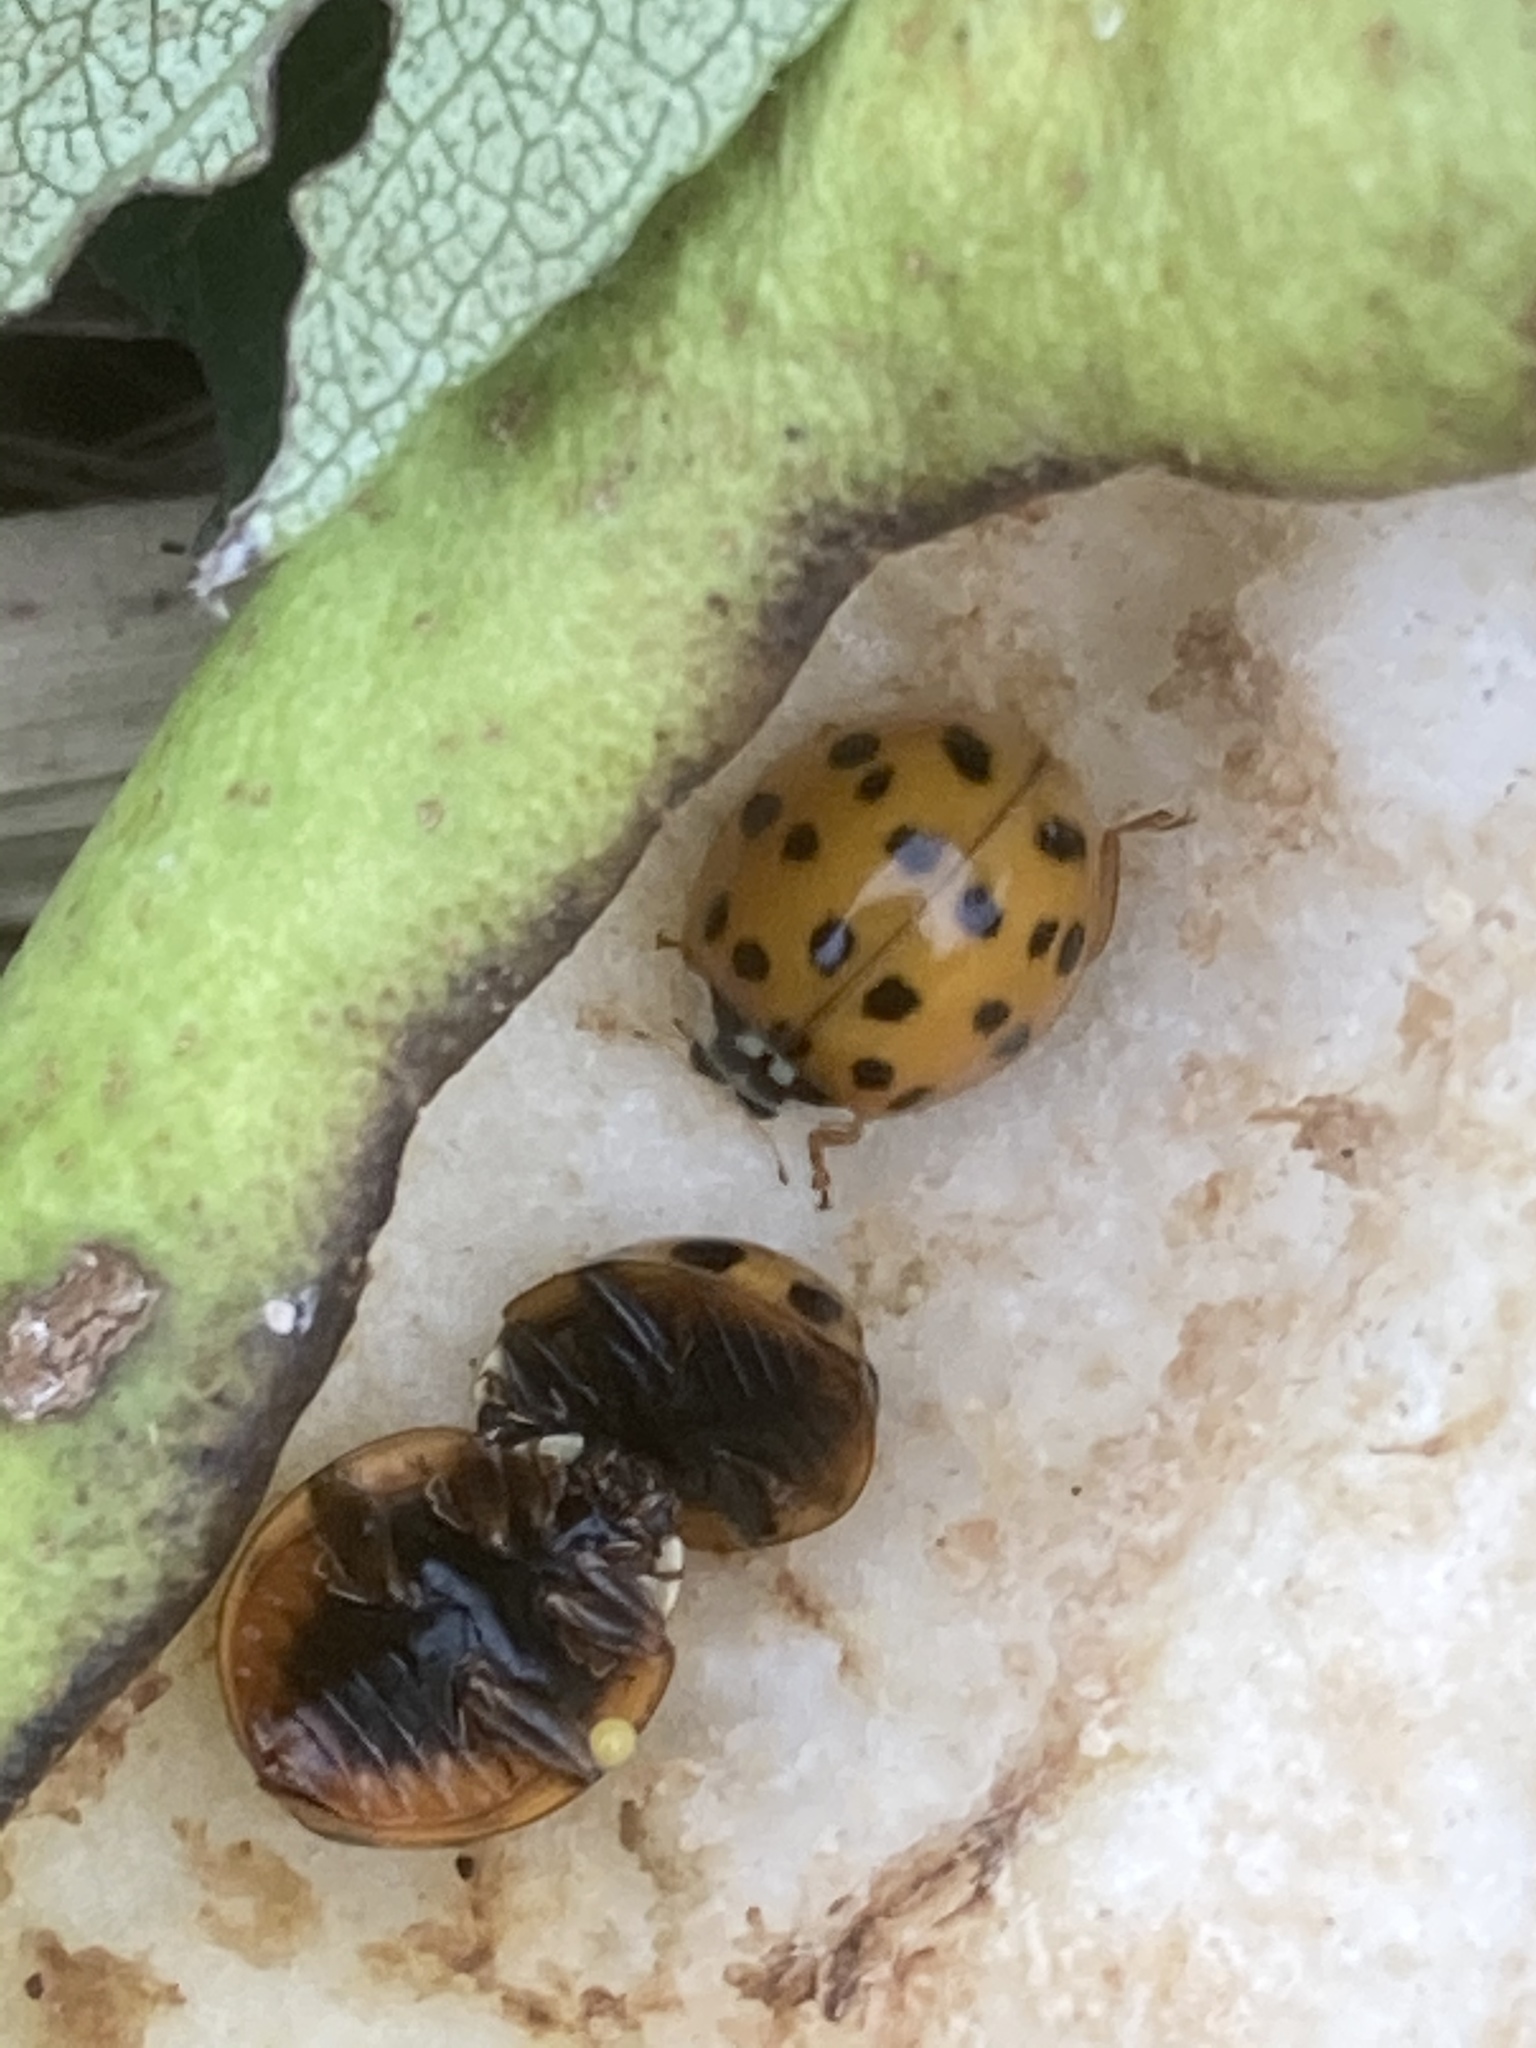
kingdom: Animalia
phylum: Arthropoda
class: Insecta
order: Coleoptera
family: Coccinellidae
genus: Harmonia
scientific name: Harmonia axyridis
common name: Harlequin ladybird
